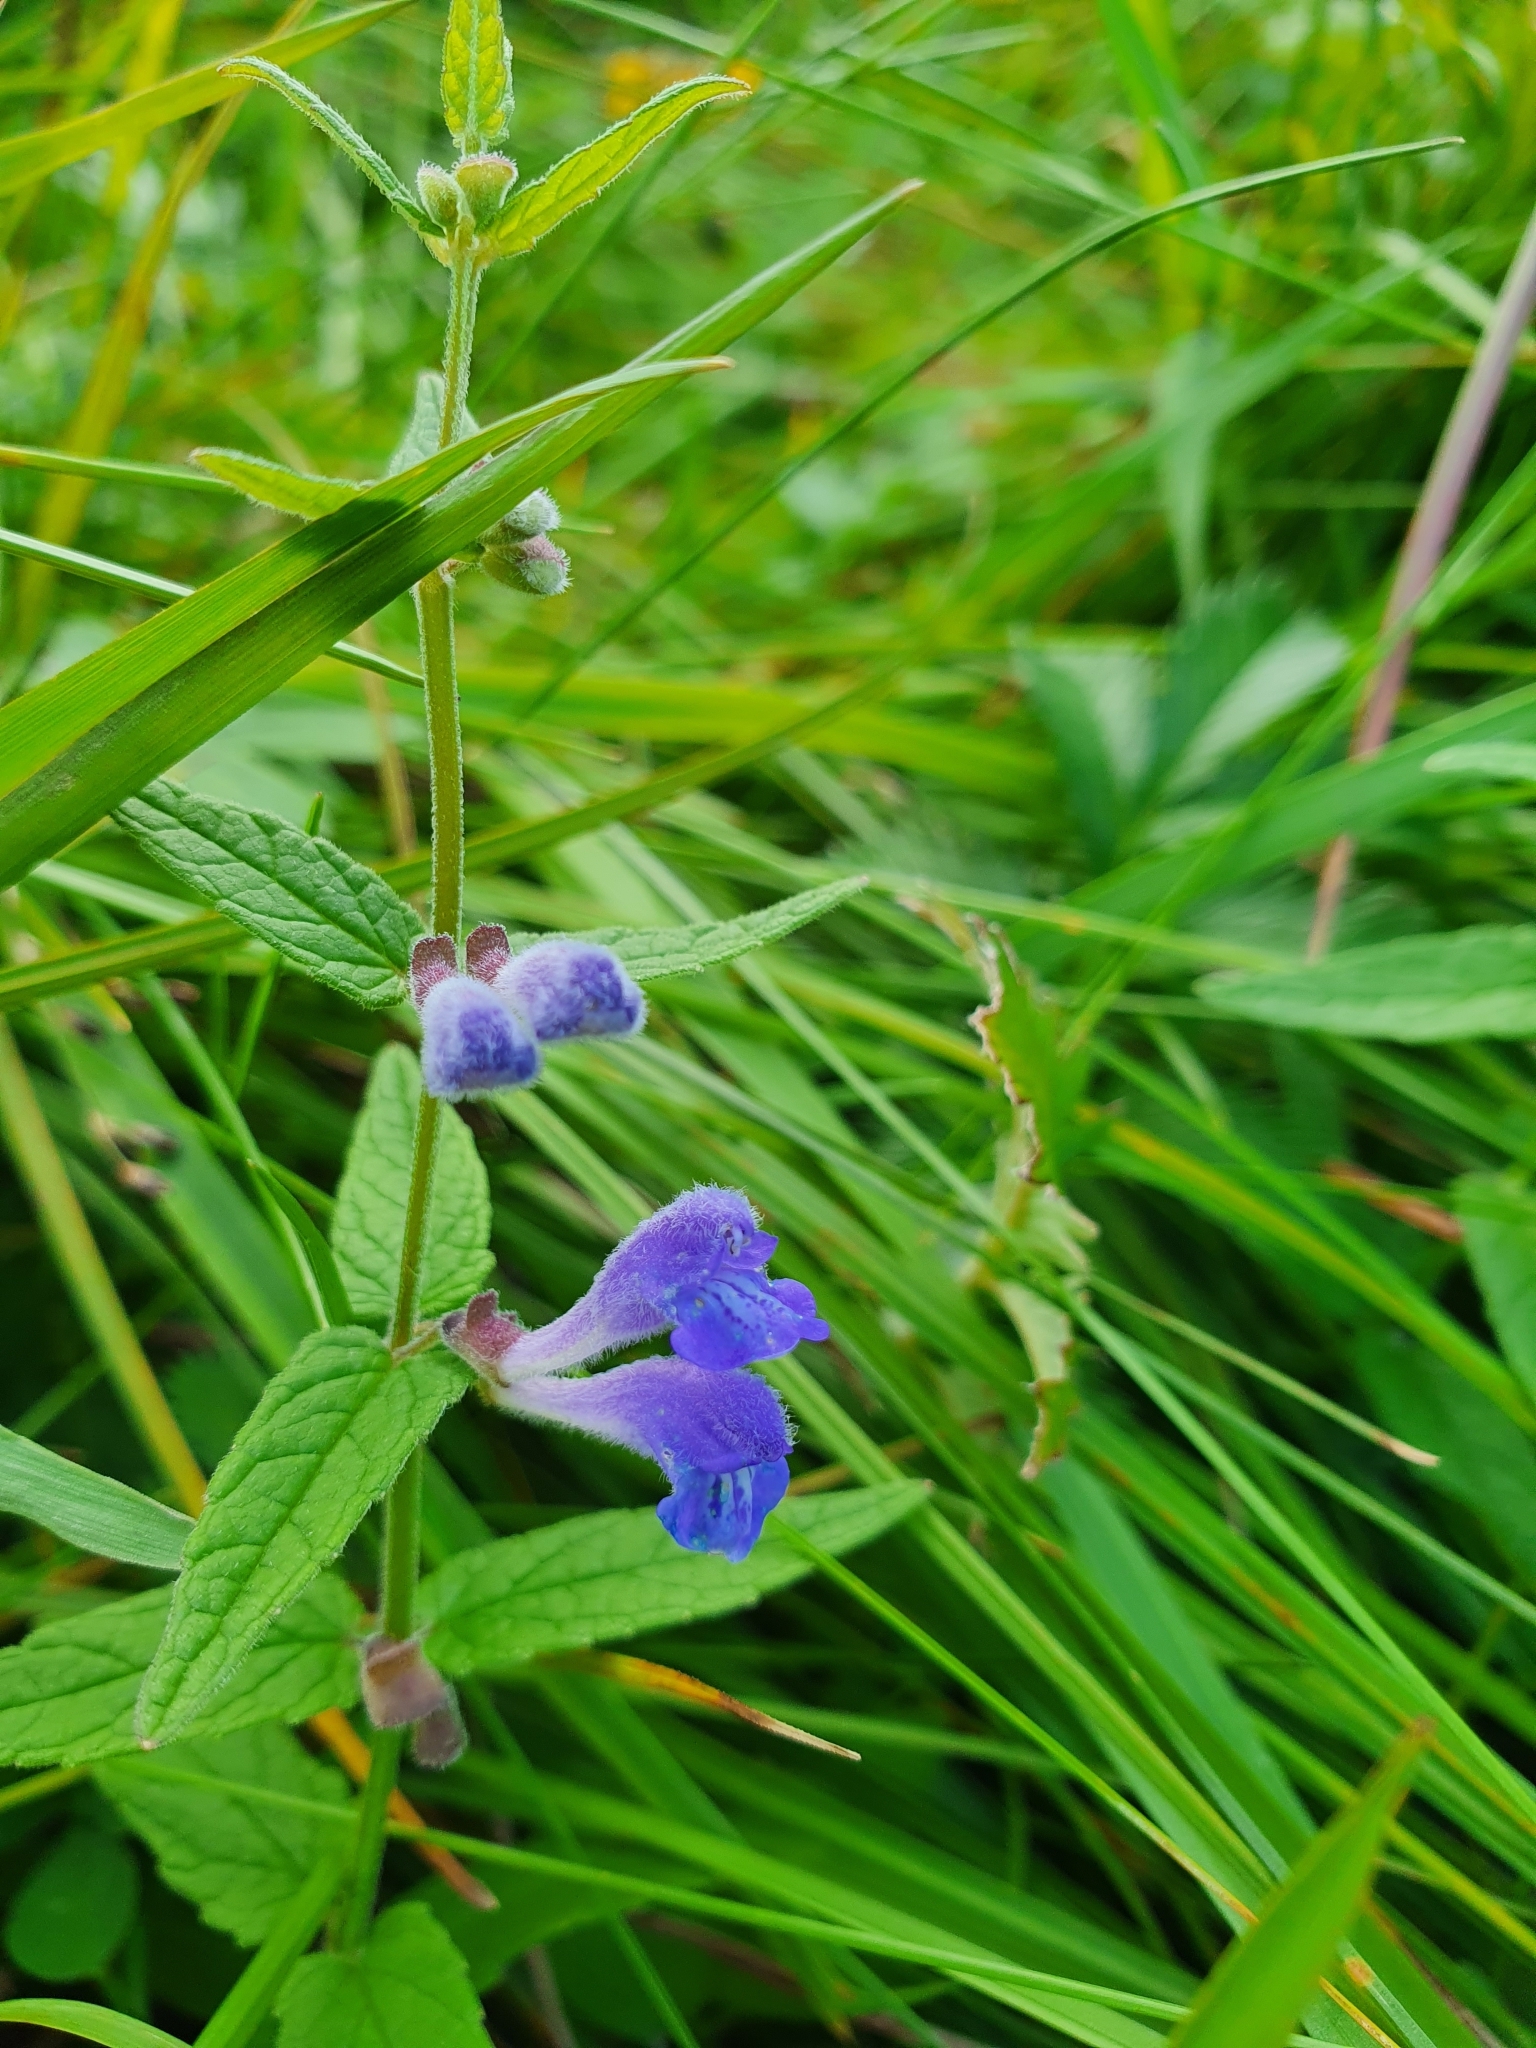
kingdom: Plantae
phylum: Tracheophyta
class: Magnoliopsida
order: Lamiales
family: Lamiaceae
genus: Scutellaria
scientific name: Scutellaria galericulata
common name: Skullcap
